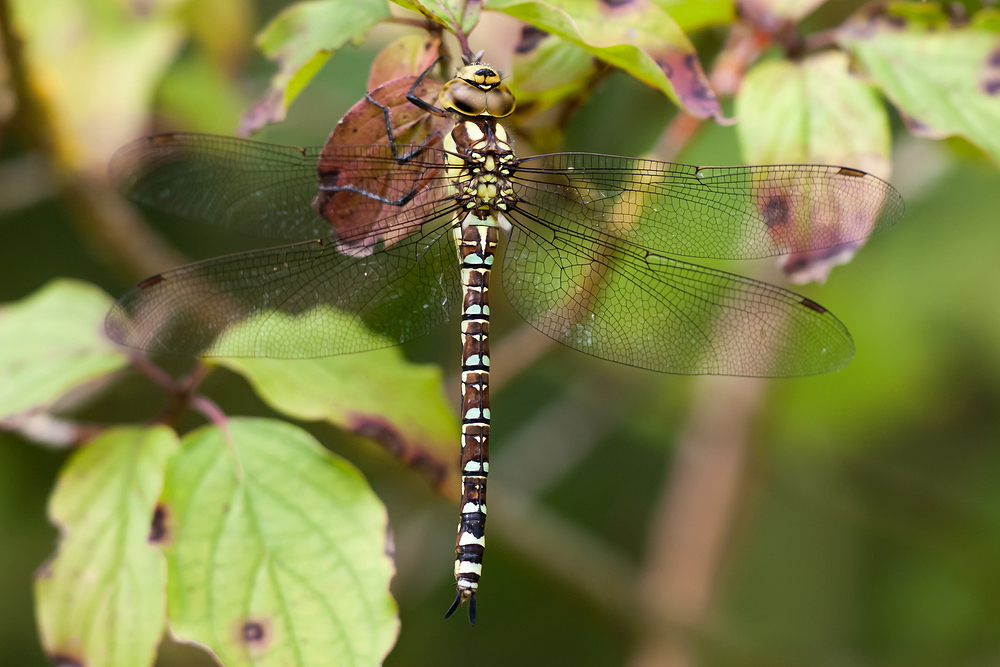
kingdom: Animalia
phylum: Arthropoda
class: Insecta
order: Odonata
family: Aeshnidae
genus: Aeshna
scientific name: Aeshna cyanea
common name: Southern hawker
